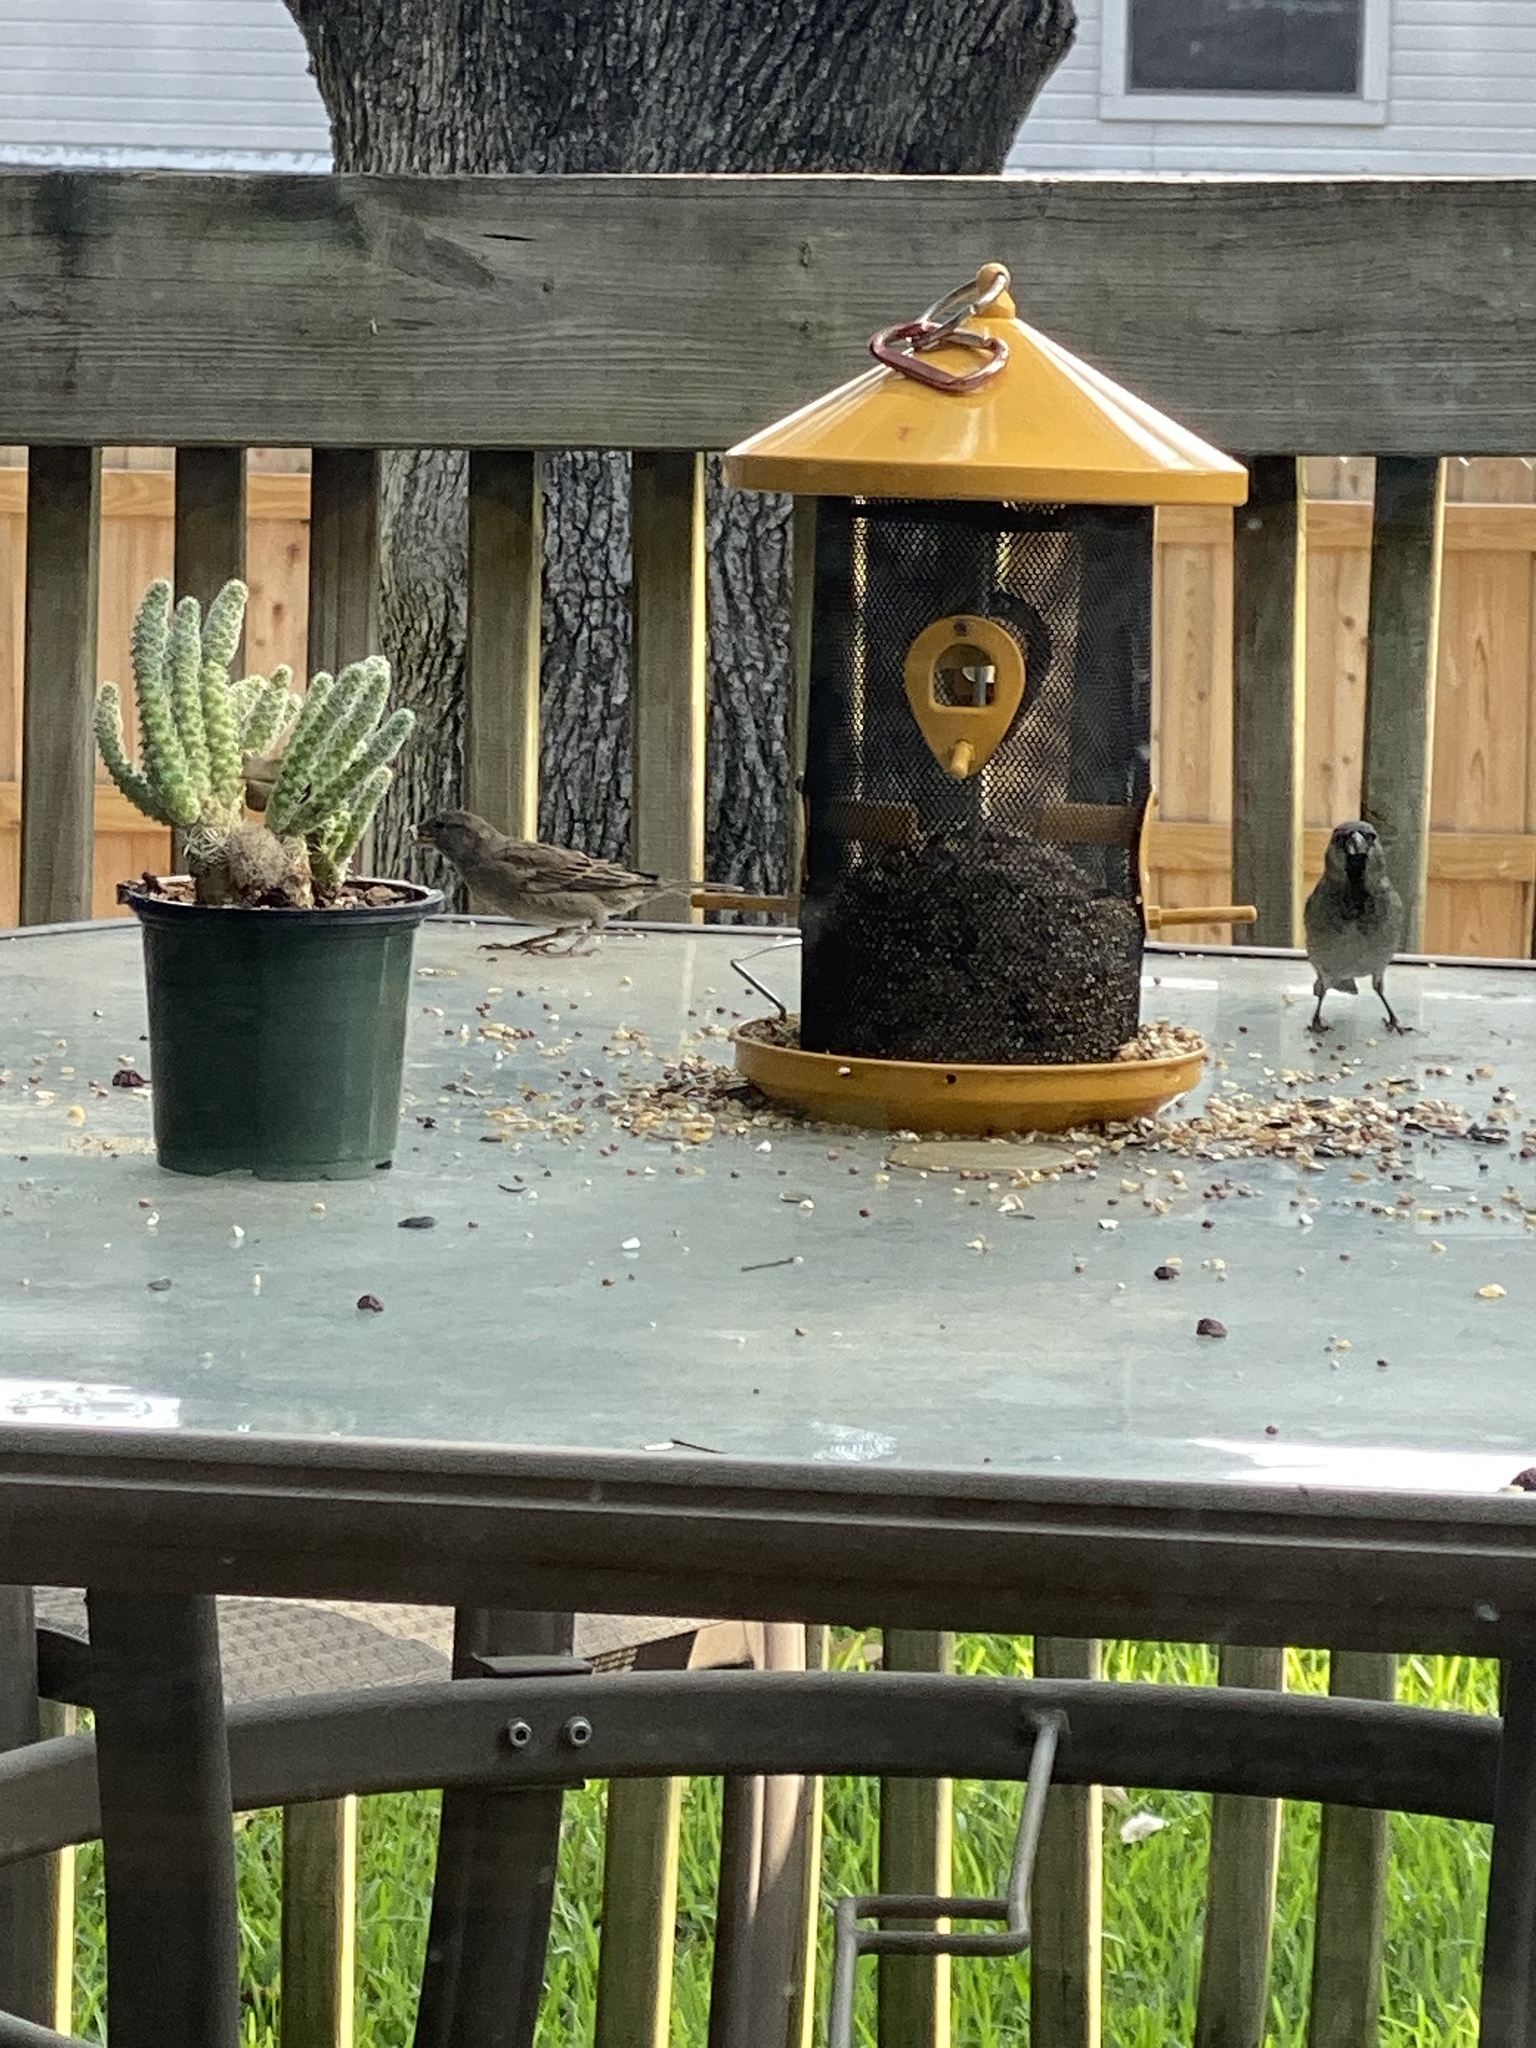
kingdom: Animalia
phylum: Chordata
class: Aves
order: Passeriformes
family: Passeridae
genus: Passer
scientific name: Passer domesticus
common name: House sparrow
